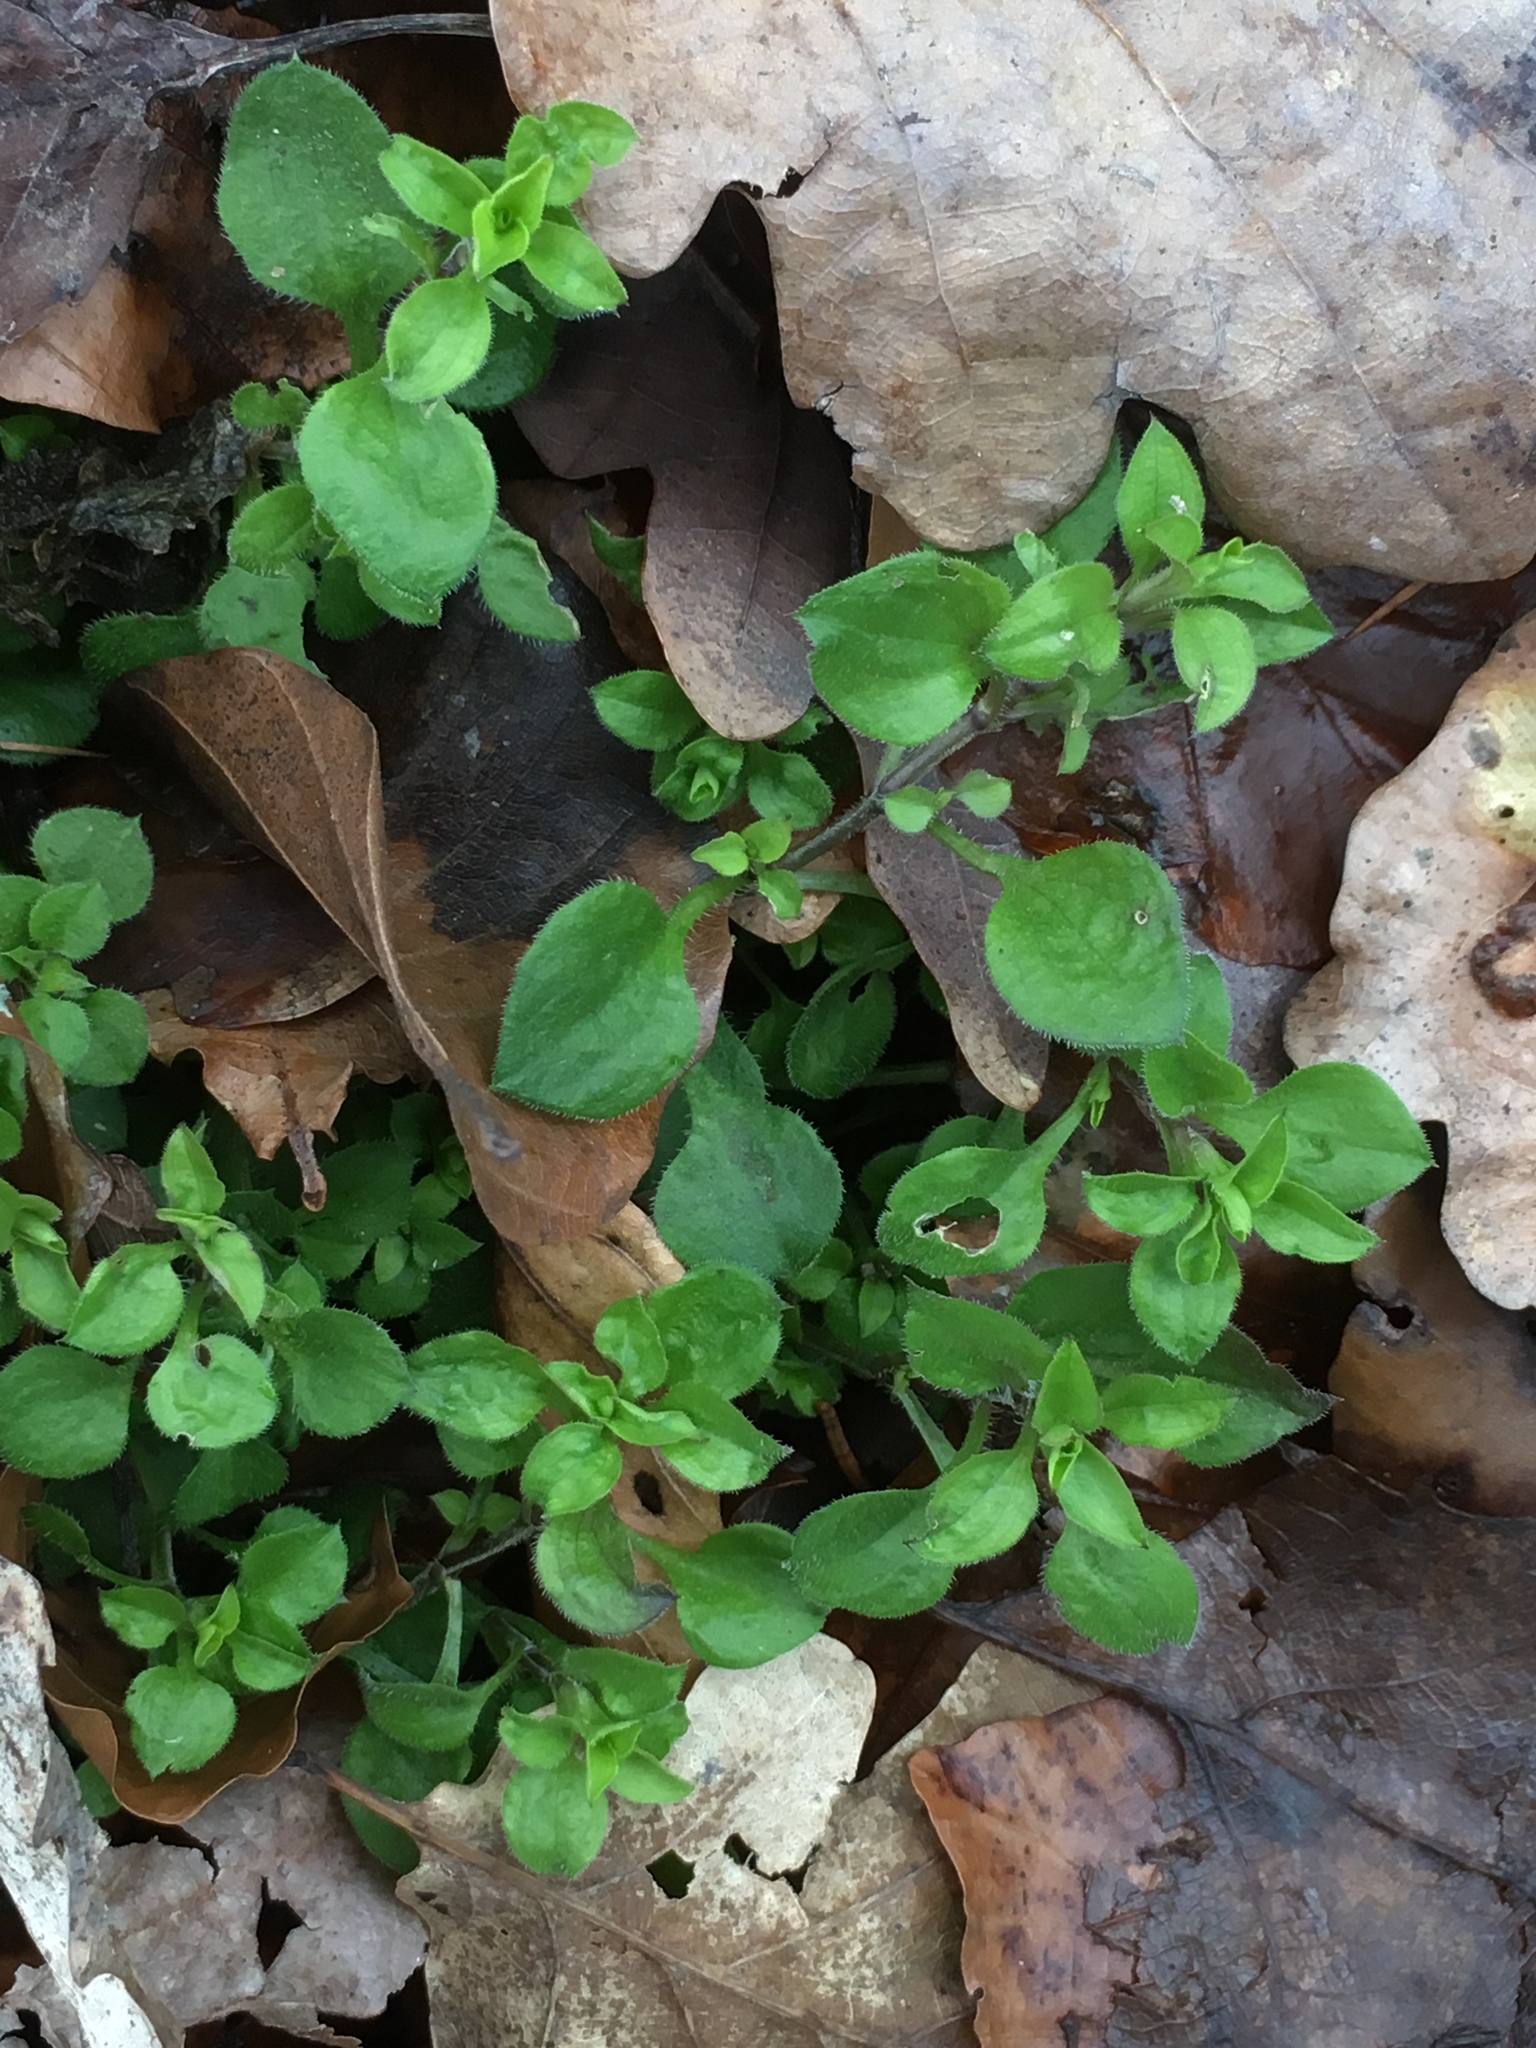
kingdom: Plantae
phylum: Tracheophyta
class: Magnoliopsida
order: Caryophyllales
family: Caryophyllaceae
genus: Stellaria
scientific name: Stellaria media
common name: Common chickweed
